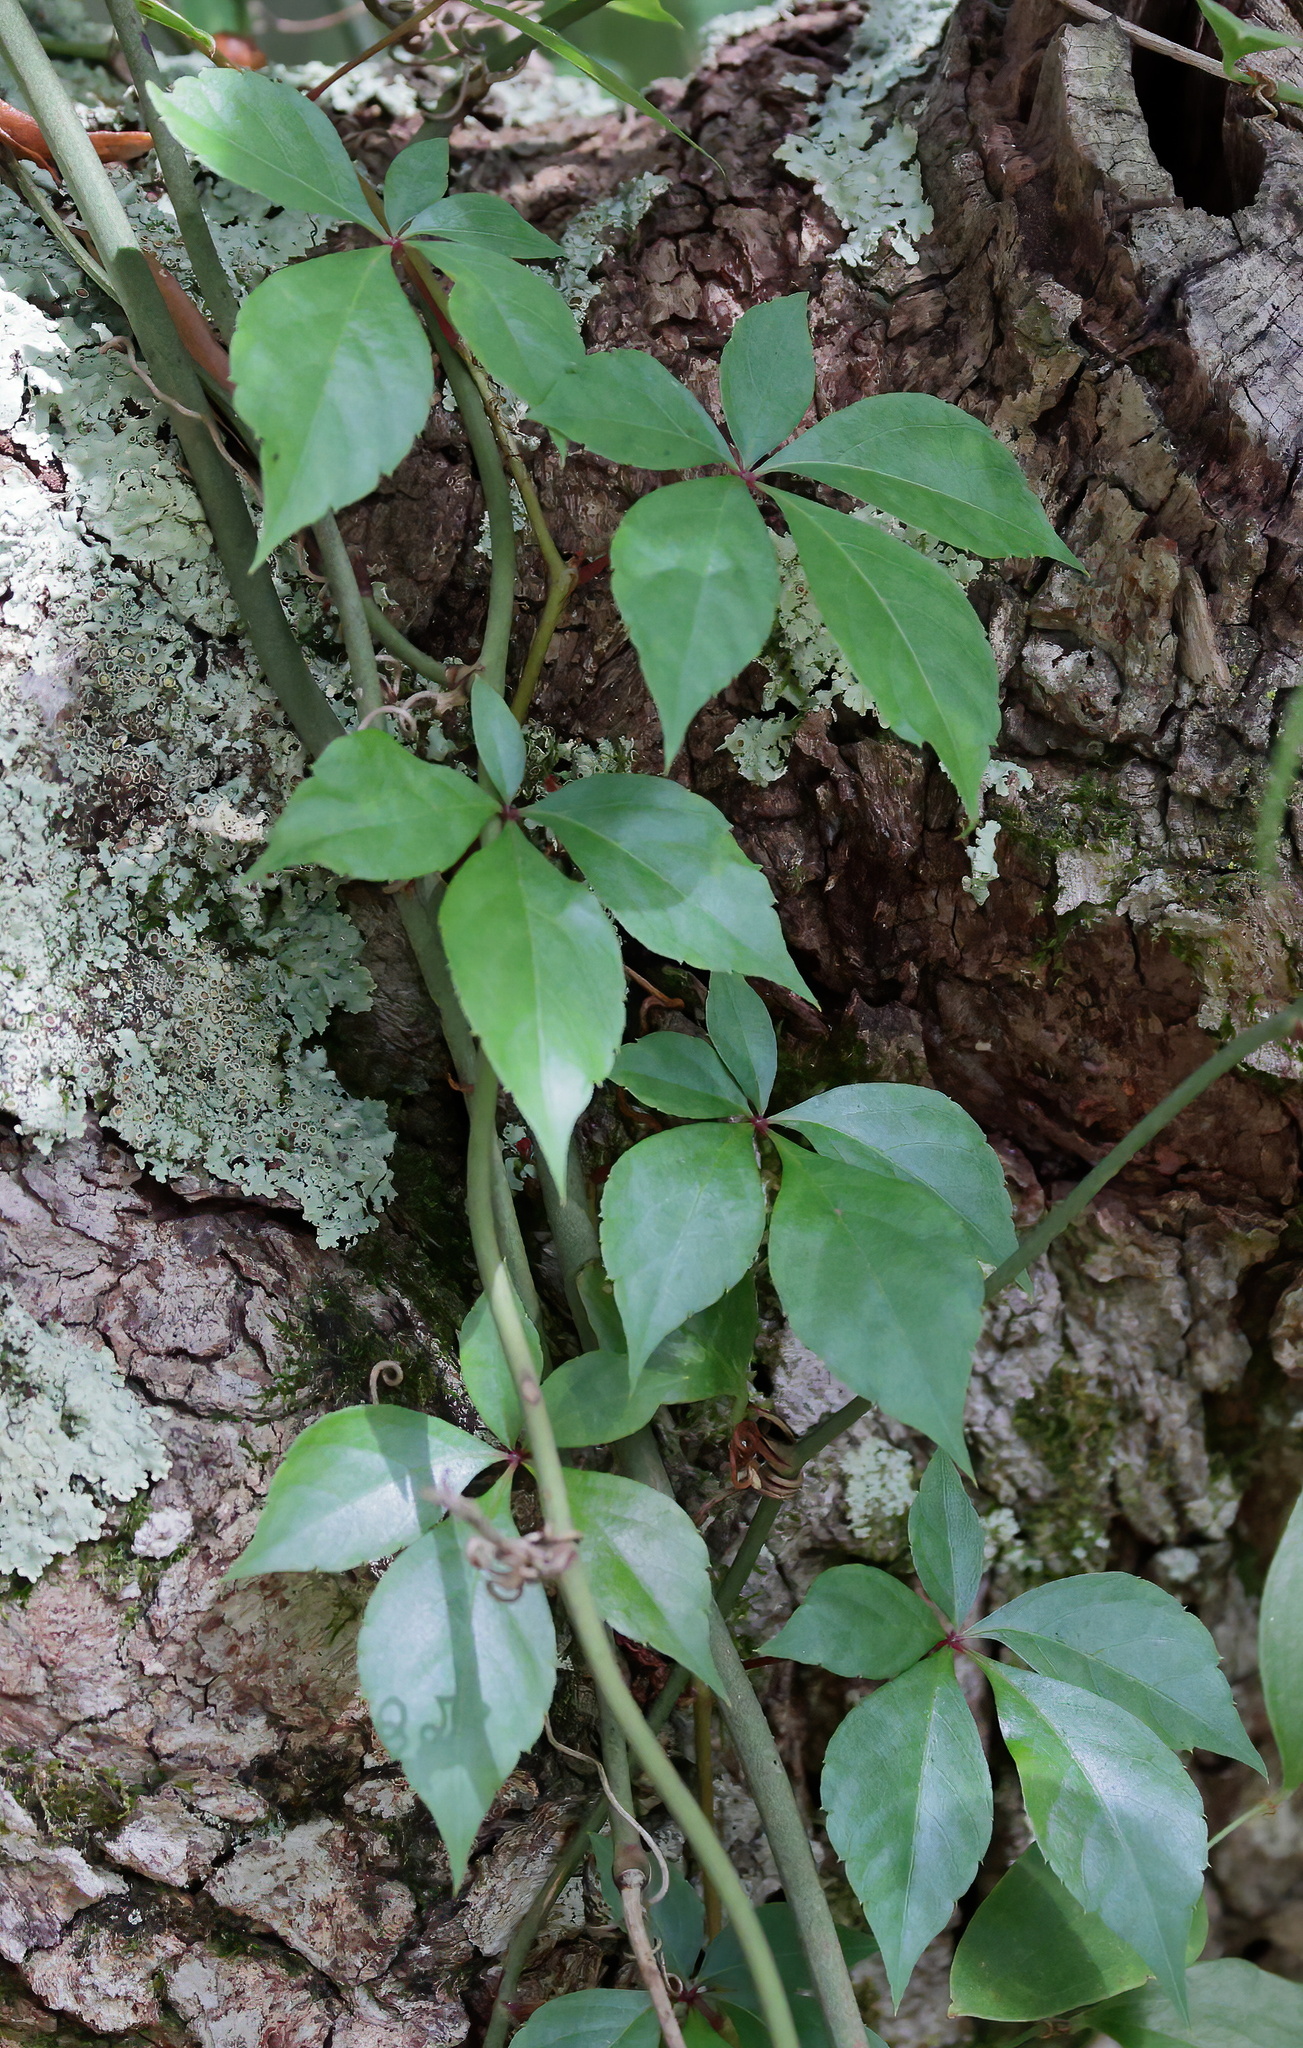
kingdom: Plantae
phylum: Tracheophyta
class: Magnoliopsida
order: Vitales
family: Vitaceae
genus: Parthenocissus
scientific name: Parthenocissus quinquefolia
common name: Virginia-creeper
